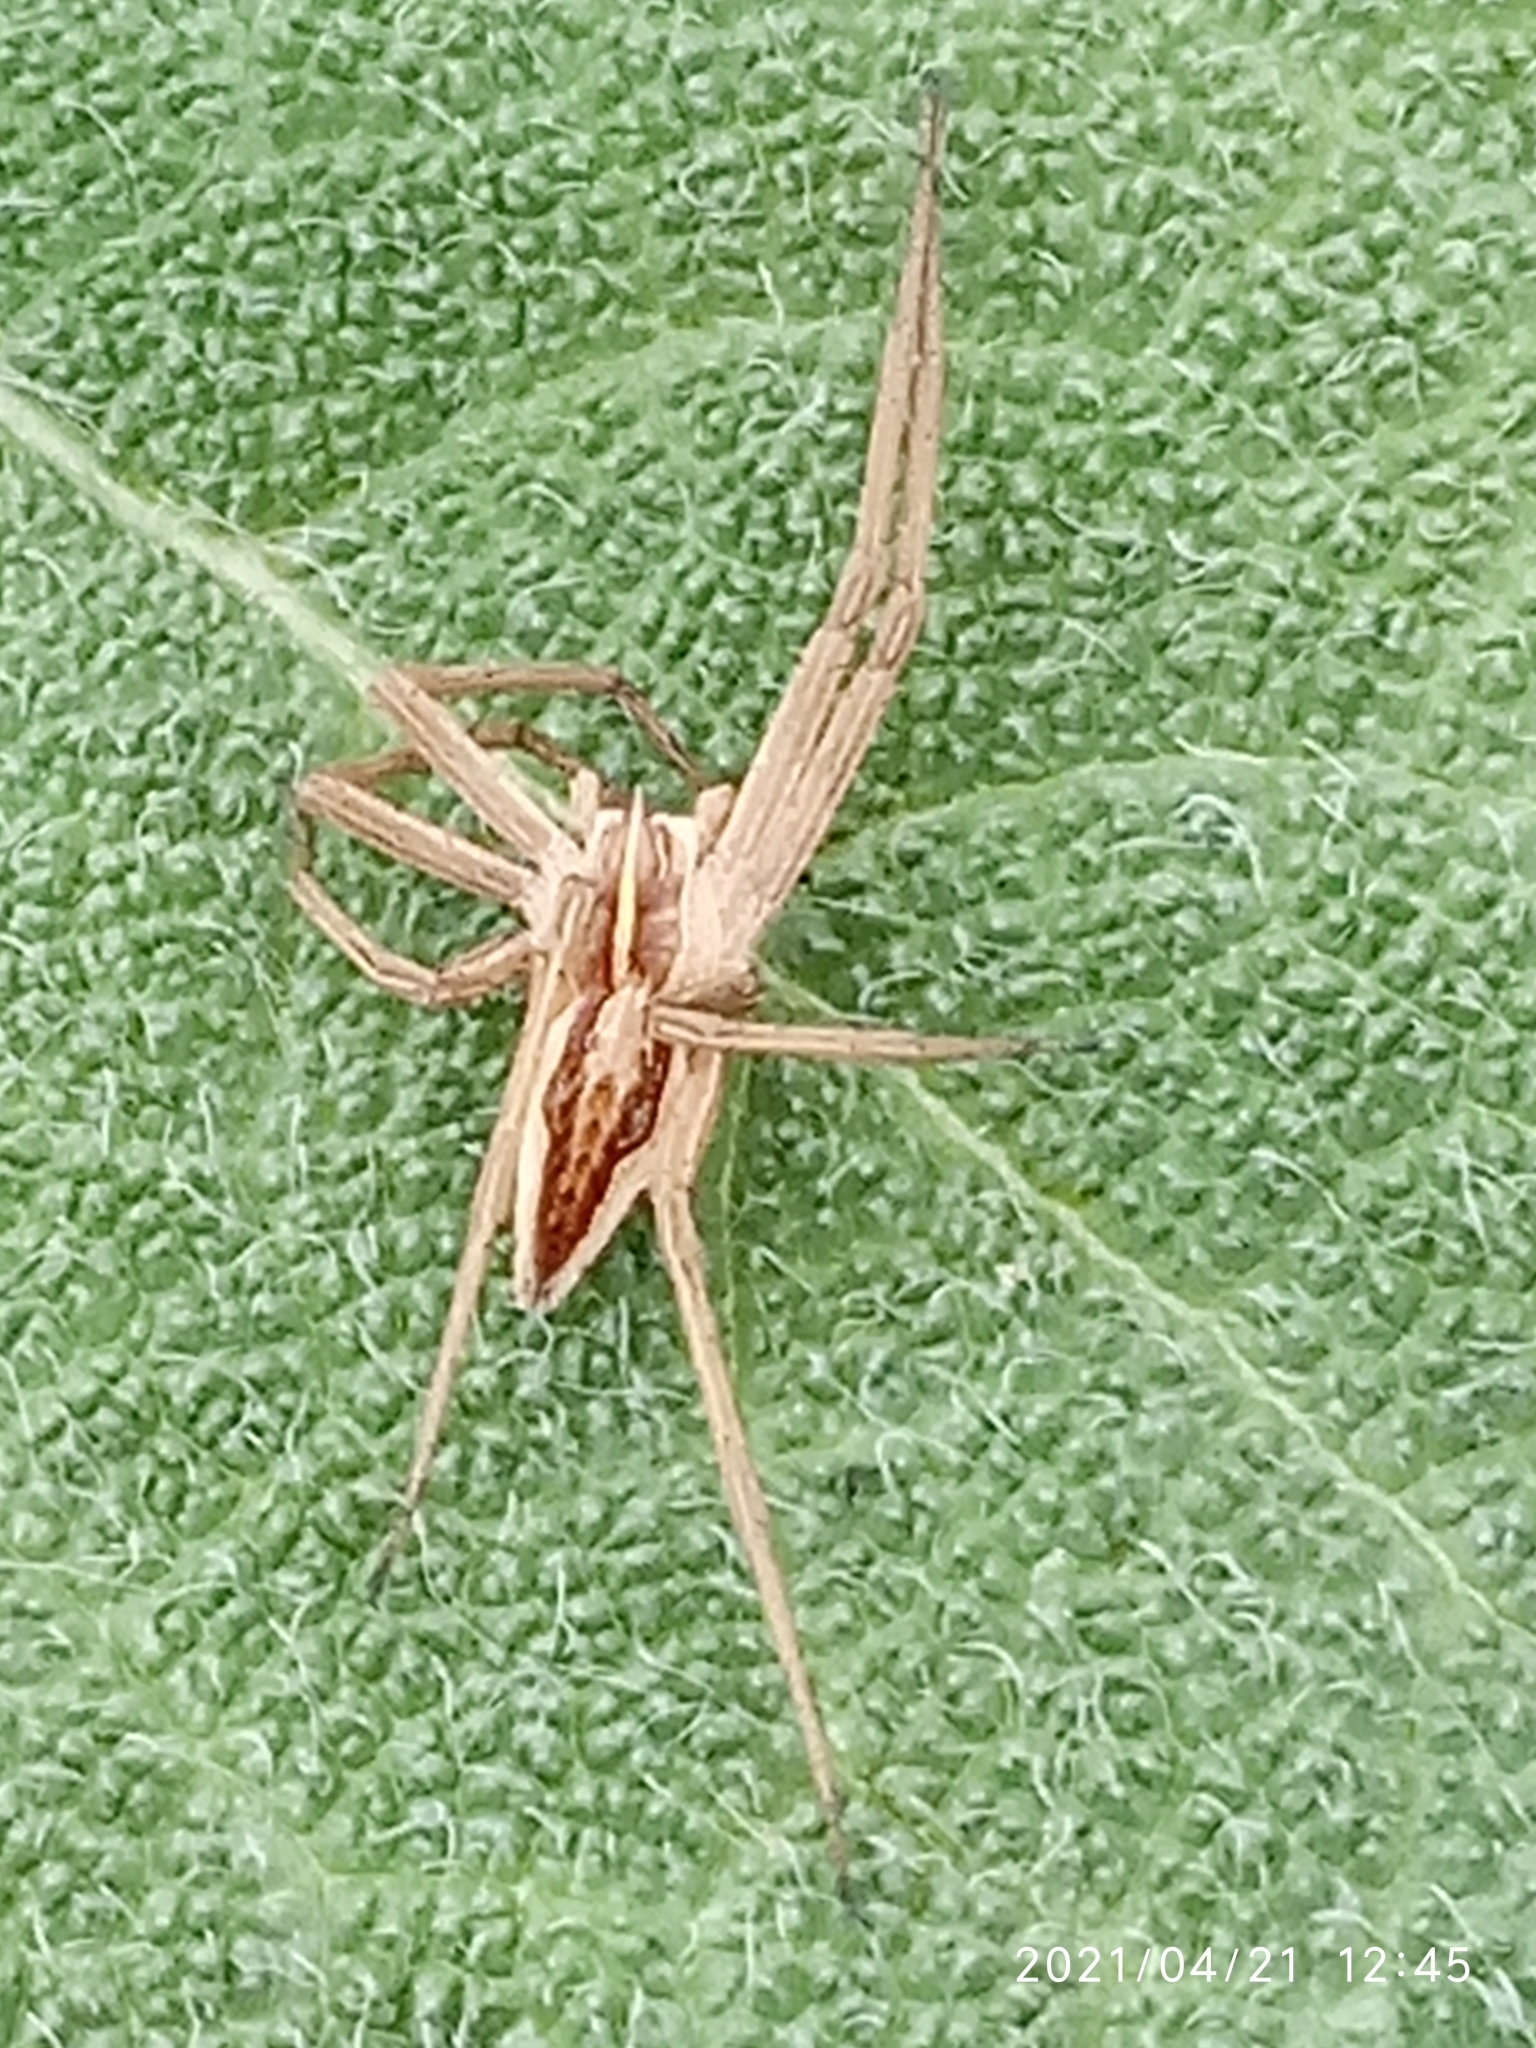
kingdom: Animalia
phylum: Arthropoda
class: Arachnida
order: Araneae
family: Pisauridae
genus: Pisaura
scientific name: Pisaura mirabilis
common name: Tent spider
